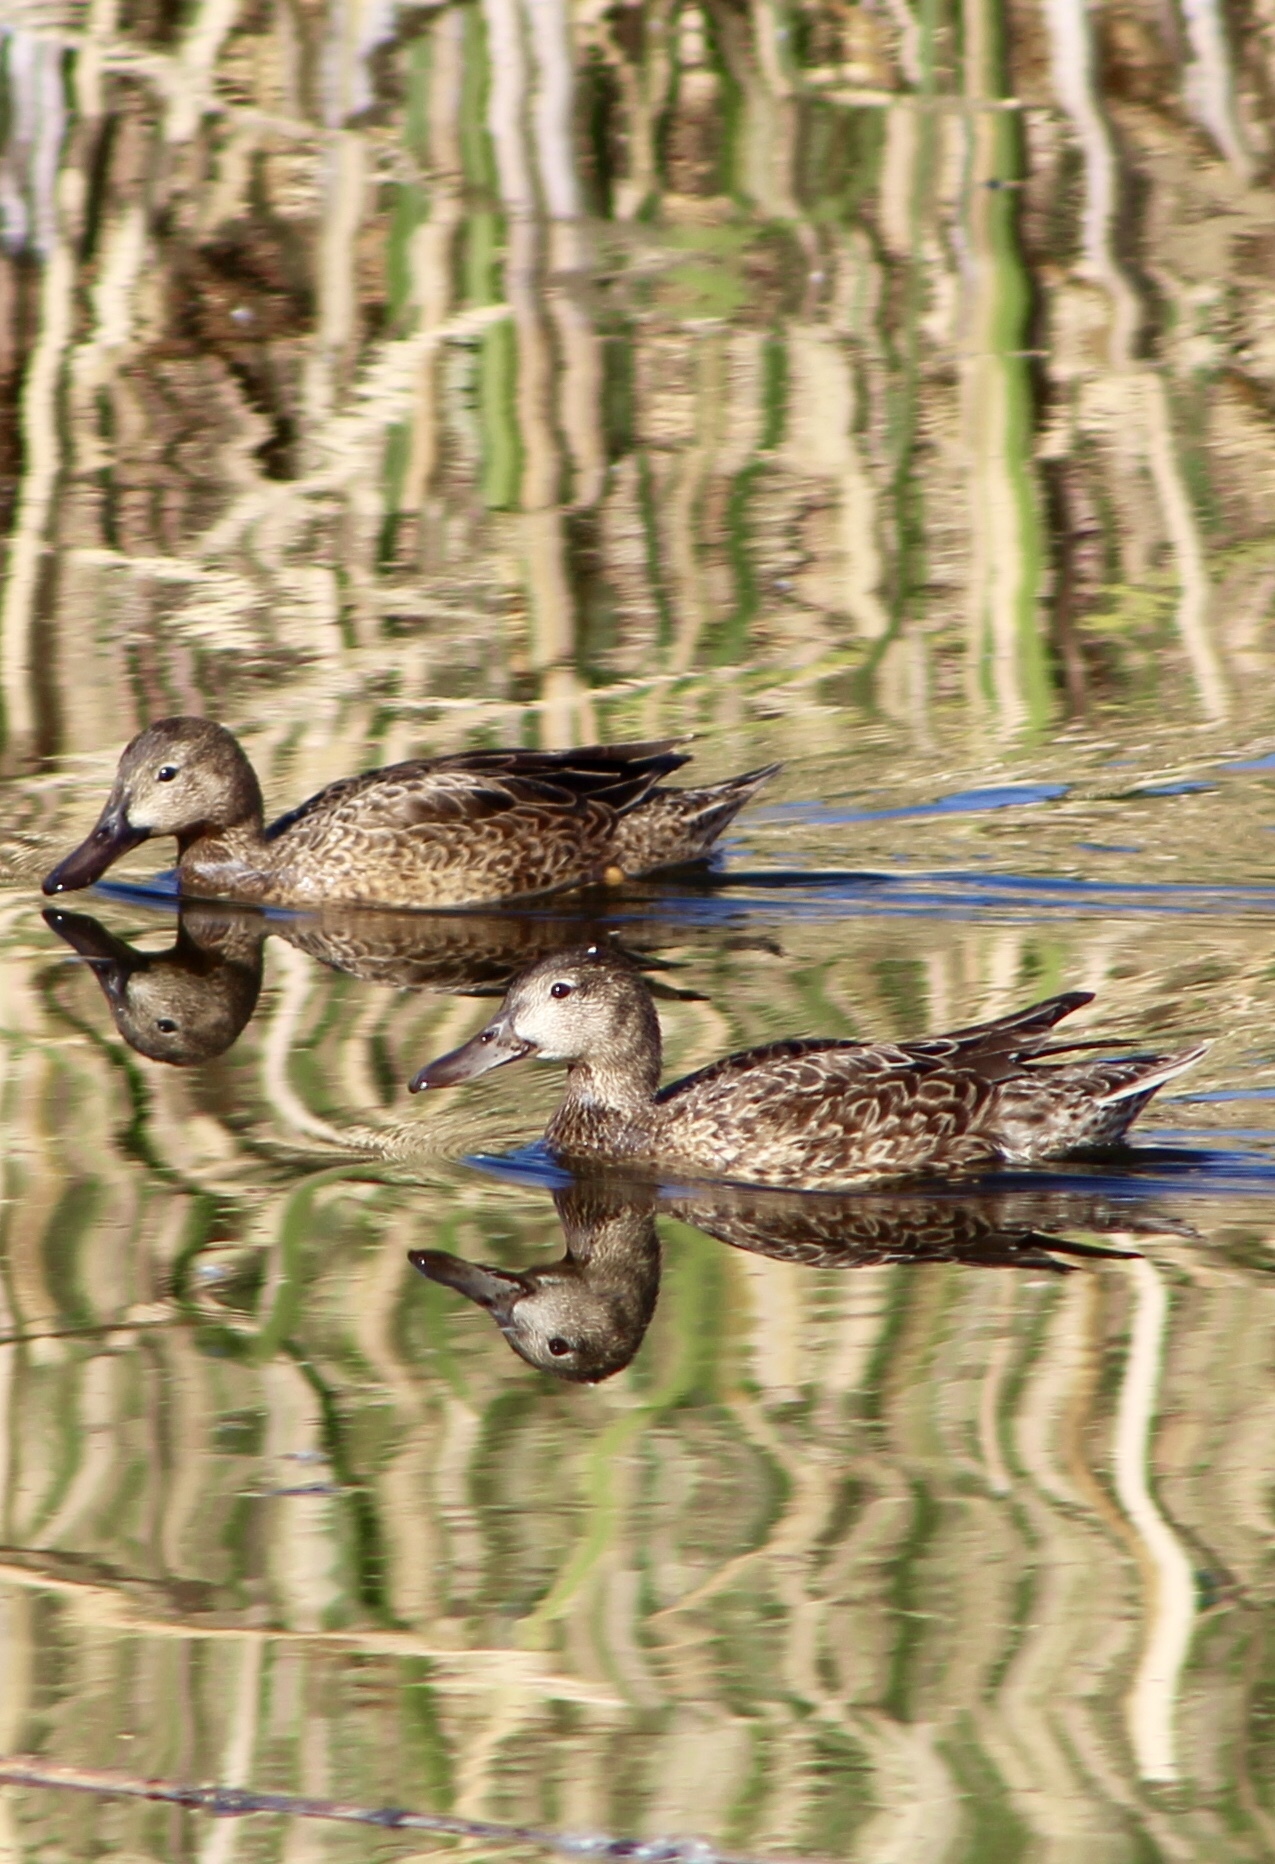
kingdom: Animalia
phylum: Chordata
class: Aves
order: Anseriformes
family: Anatidae
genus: Spatula
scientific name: Spatula cyanoptera
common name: Cinnamon teal
